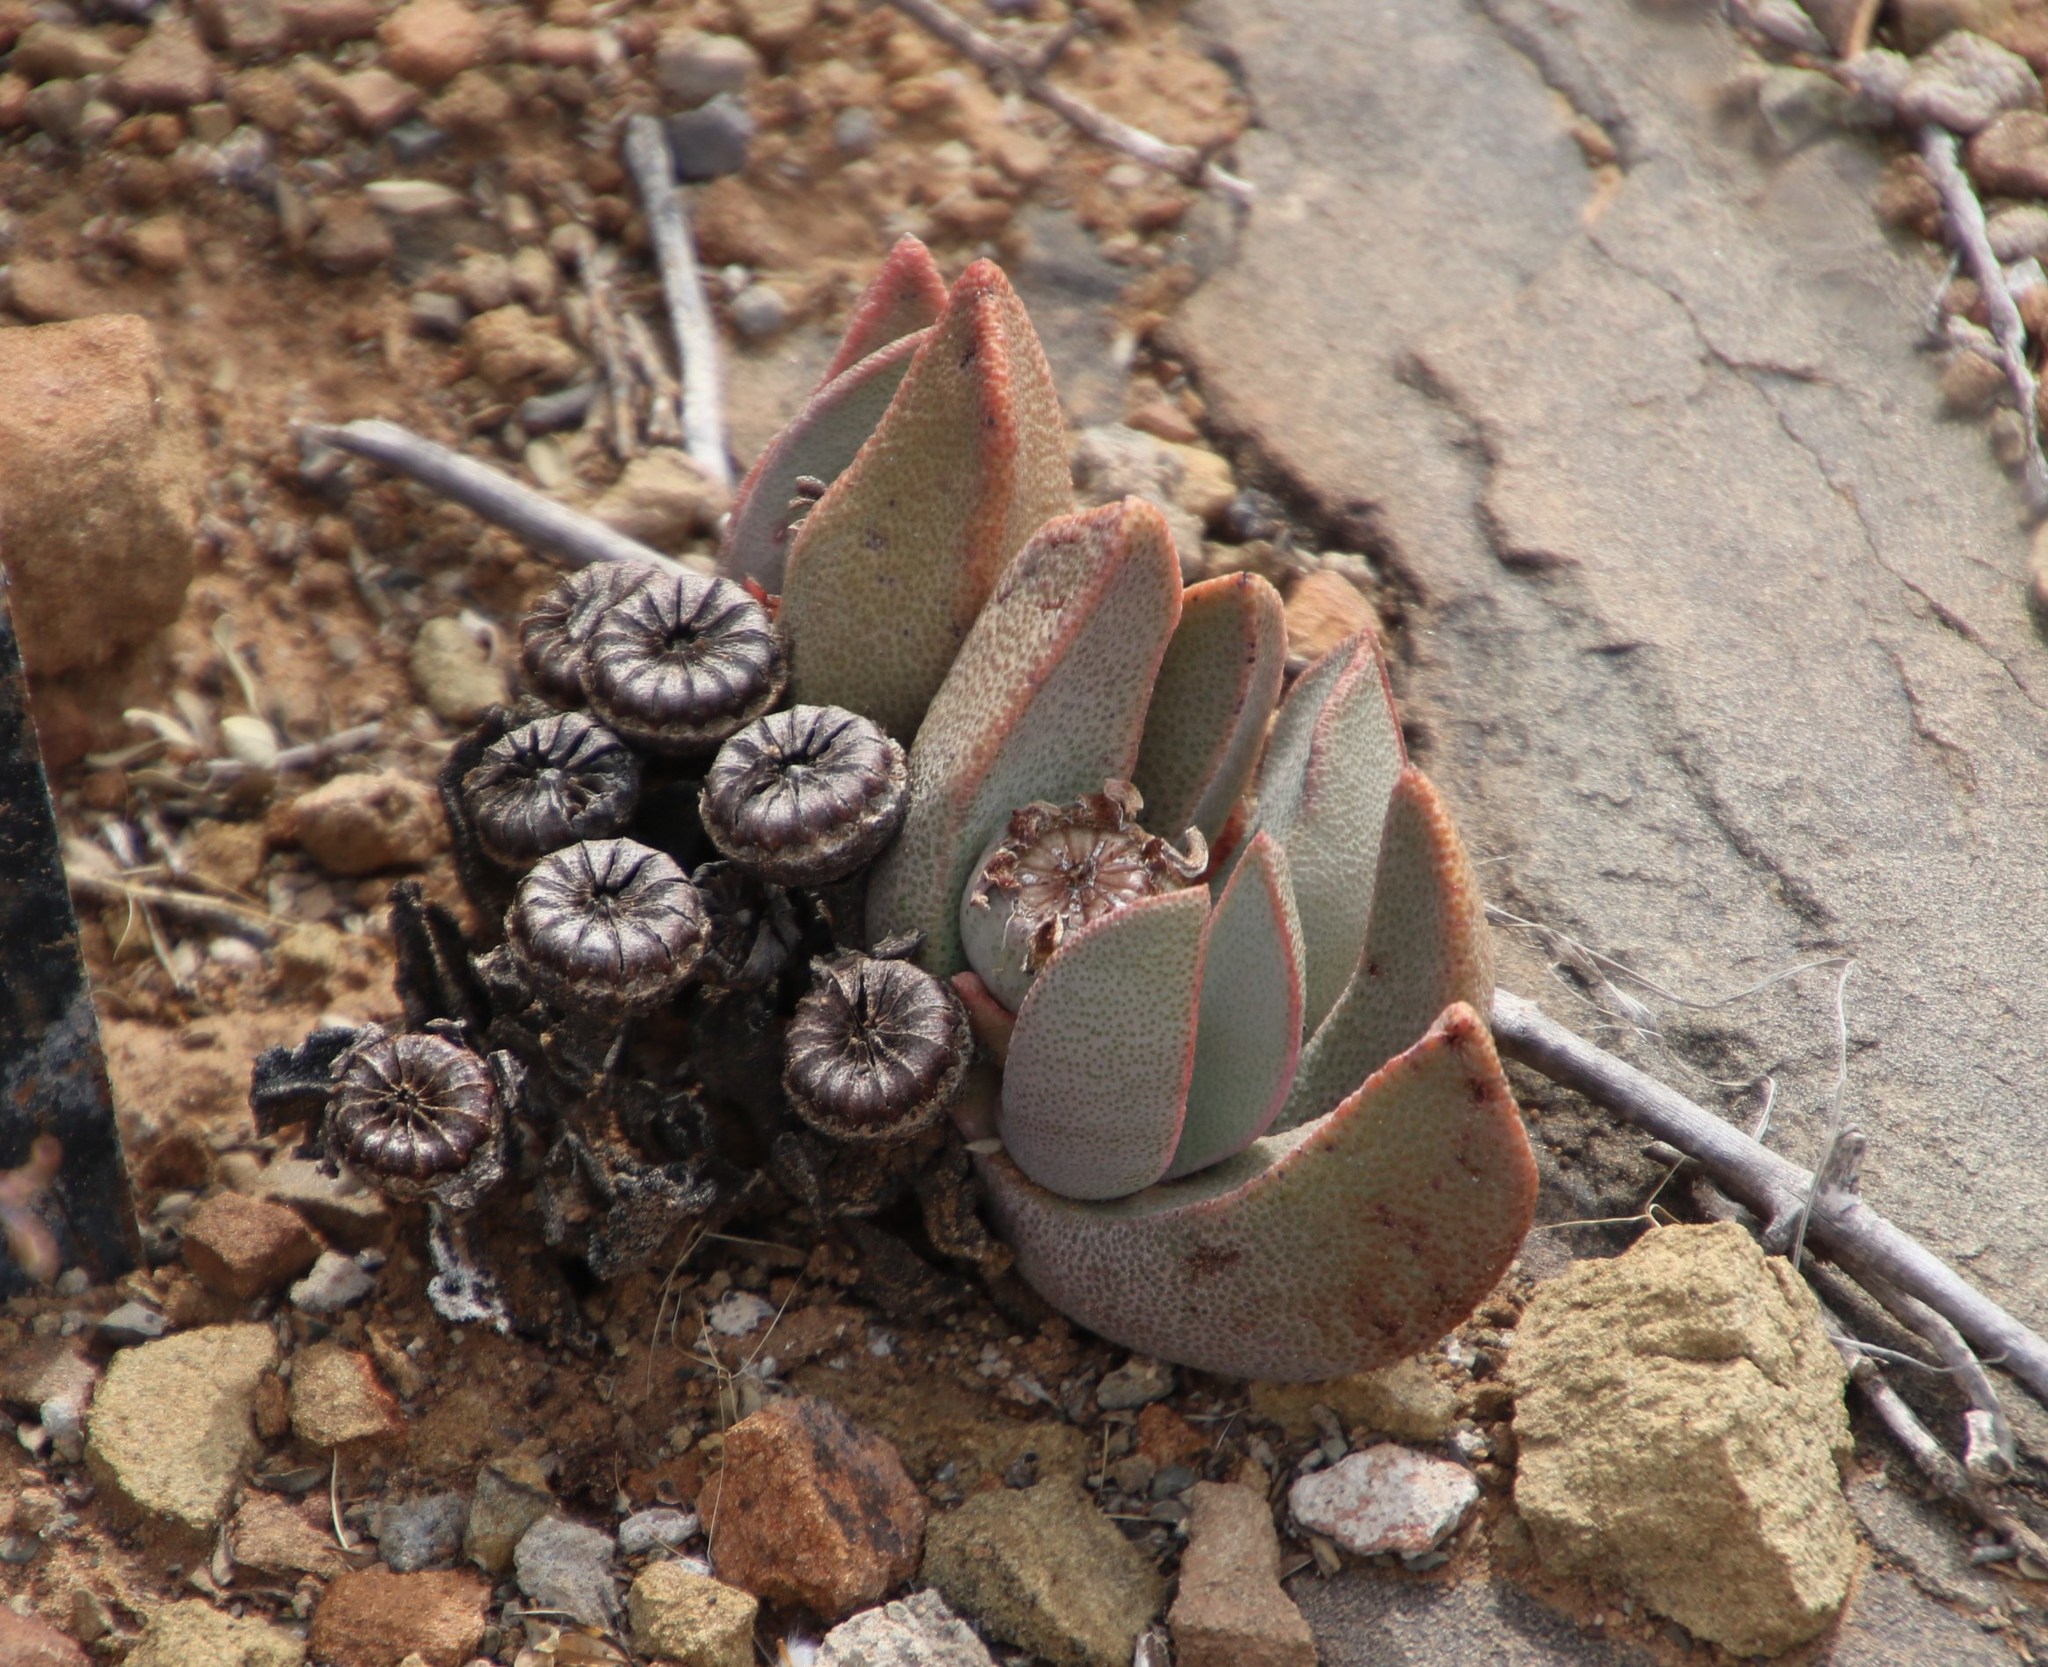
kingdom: Plantae
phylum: Tracheophyta
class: Magnoliopsida
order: Caryophyllales
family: Aizoaceae
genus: Pleiospilos
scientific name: Pleiospilos compactus
